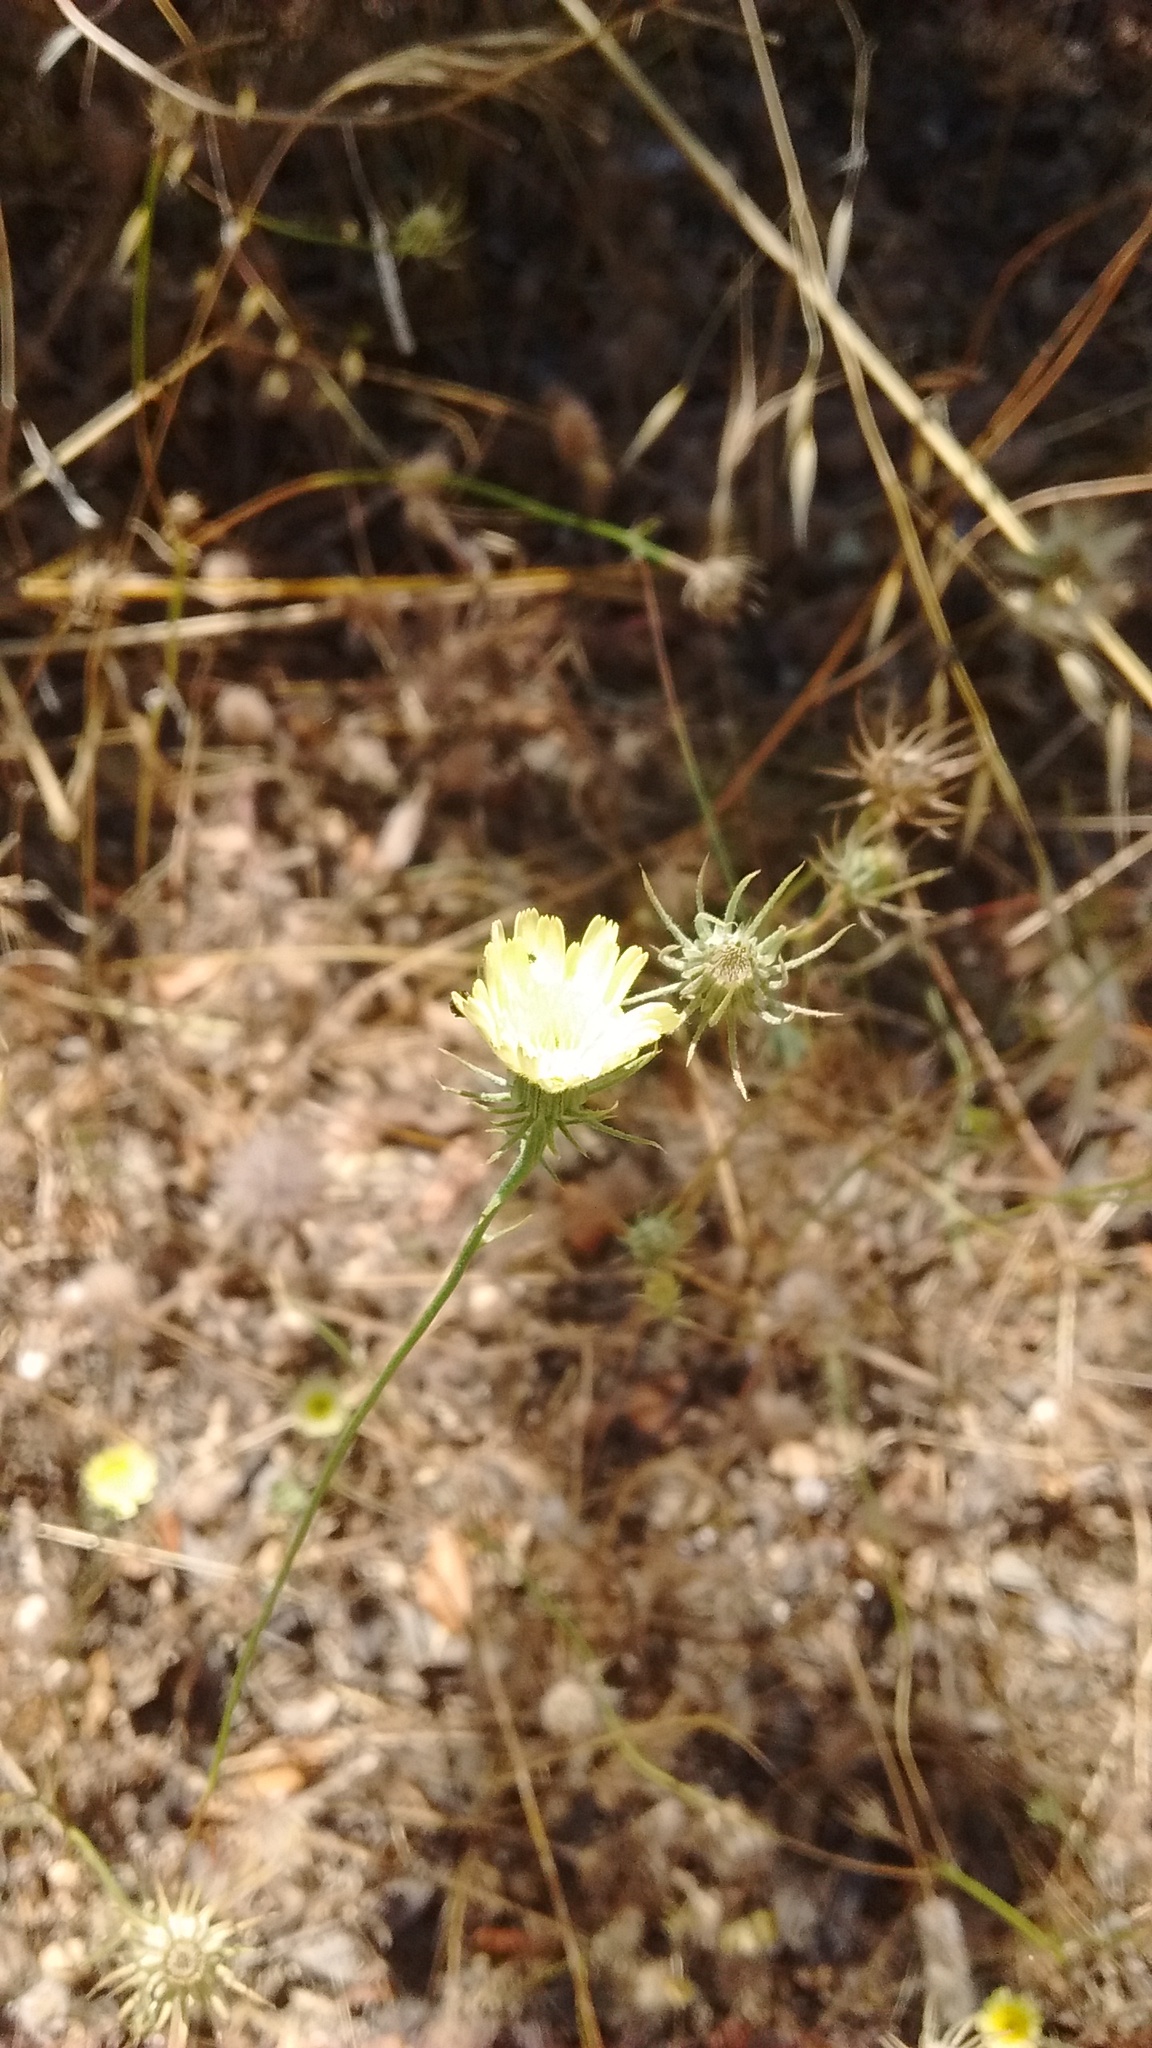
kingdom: Plantae
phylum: Tracheophyta
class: Magnoliopsida
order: Asterales
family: Asteraceae
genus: Tolpis
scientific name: Tolpis barbata
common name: Yellow hawkweed
